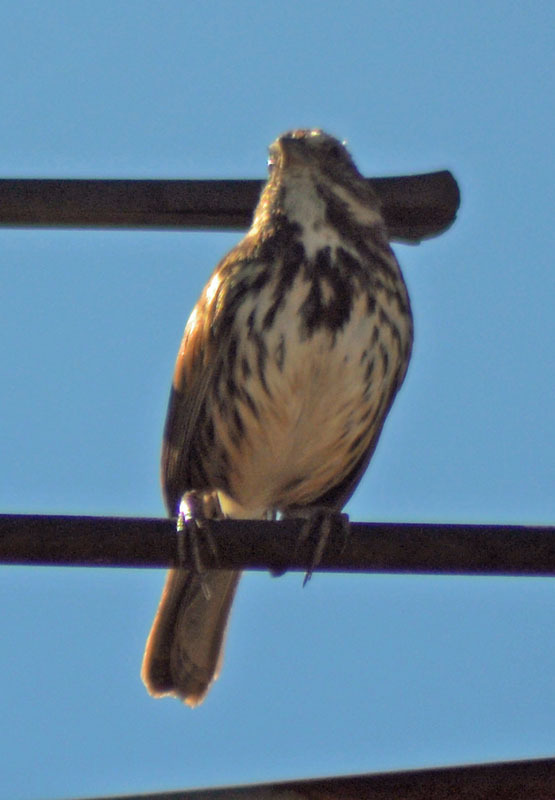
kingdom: Animalia
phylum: Chordata
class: Aves
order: Passeriformes
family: Passerellidae
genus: Melospiza
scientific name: Melospiza melodia
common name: Song sparrow
